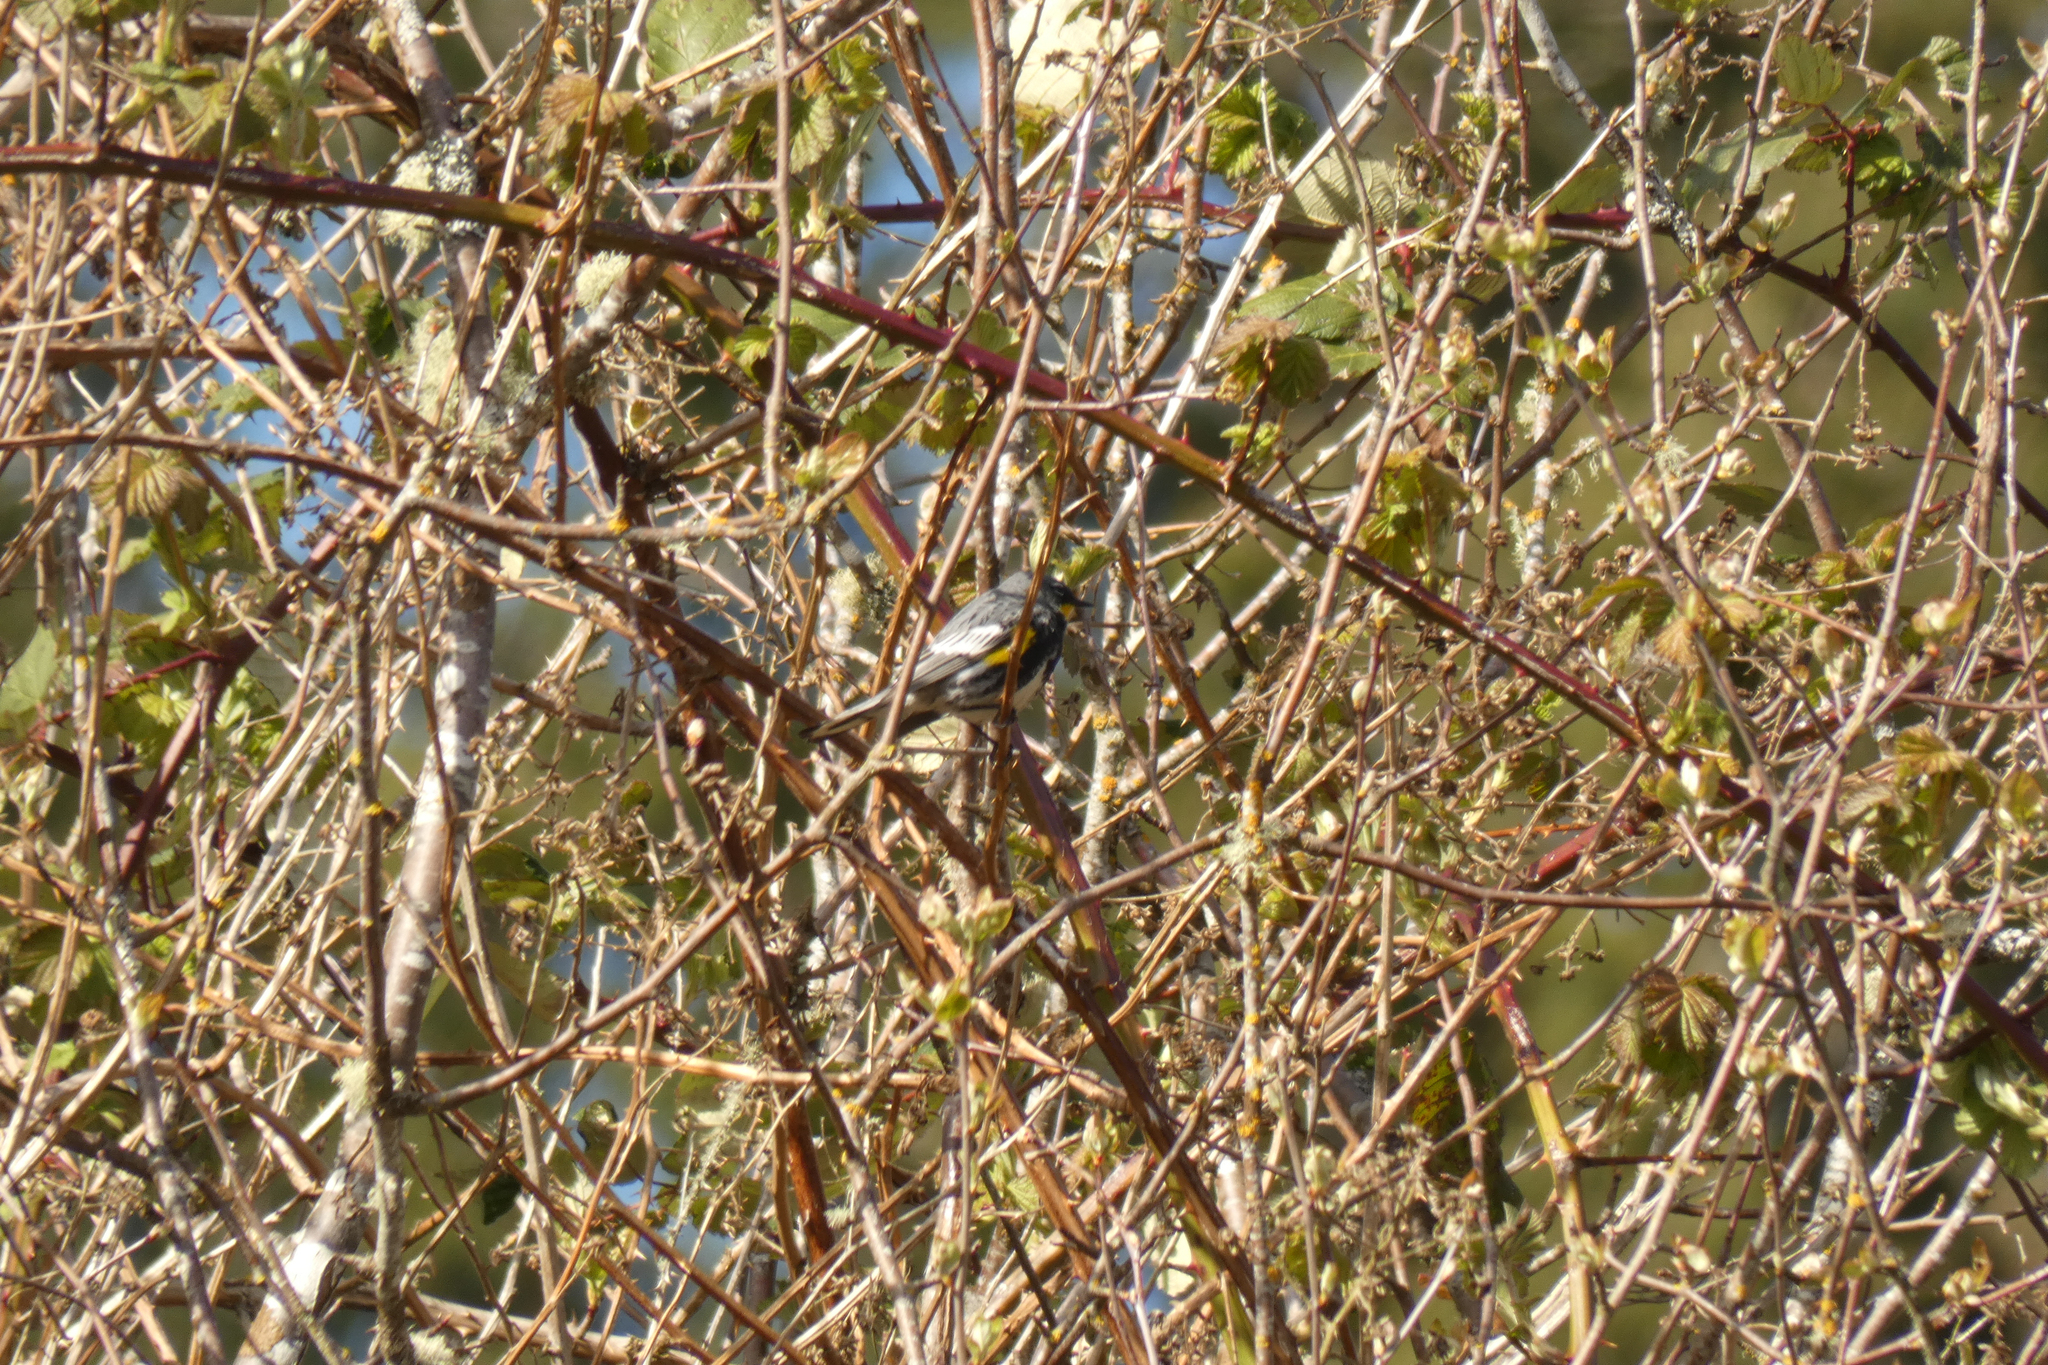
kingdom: Animalia
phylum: Chordata
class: Aves
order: Passeriformes
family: Parulidae
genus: Setophaga
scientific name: Setophaga coronata
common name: Myrtle warbler
